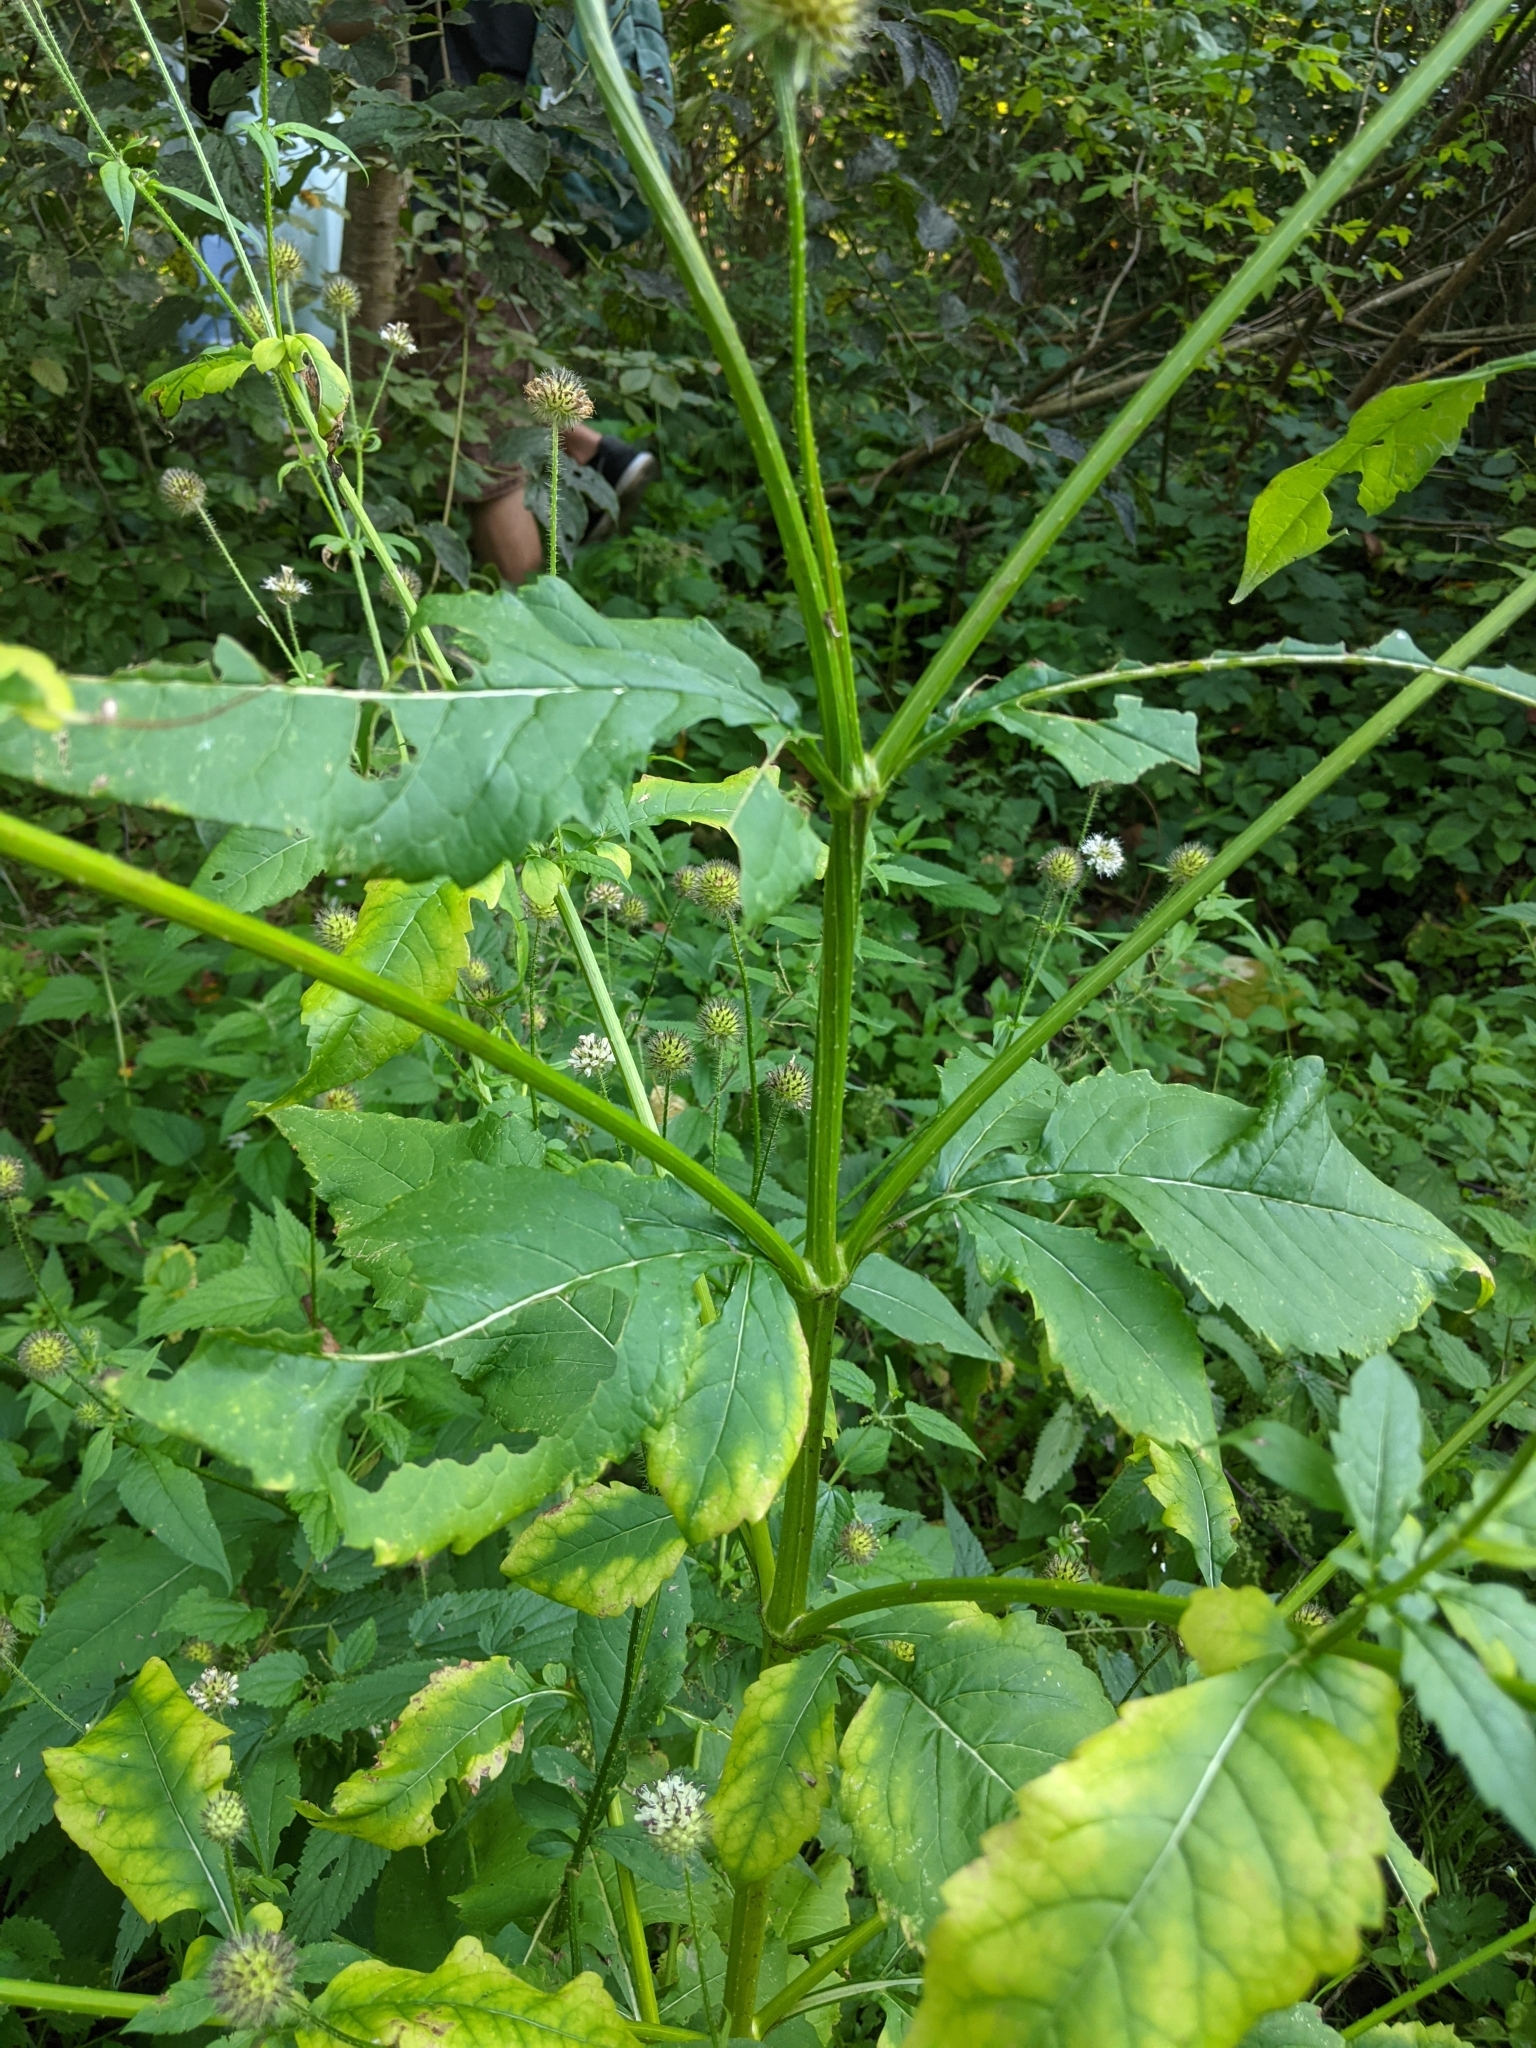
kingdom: Plantae
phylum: Tracheophyta
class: Magnoliopsida
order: Dipsacales
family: Caprifoliaceae
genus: Dipsacus
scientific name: Dipsacus pilosus
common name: Small teasel
